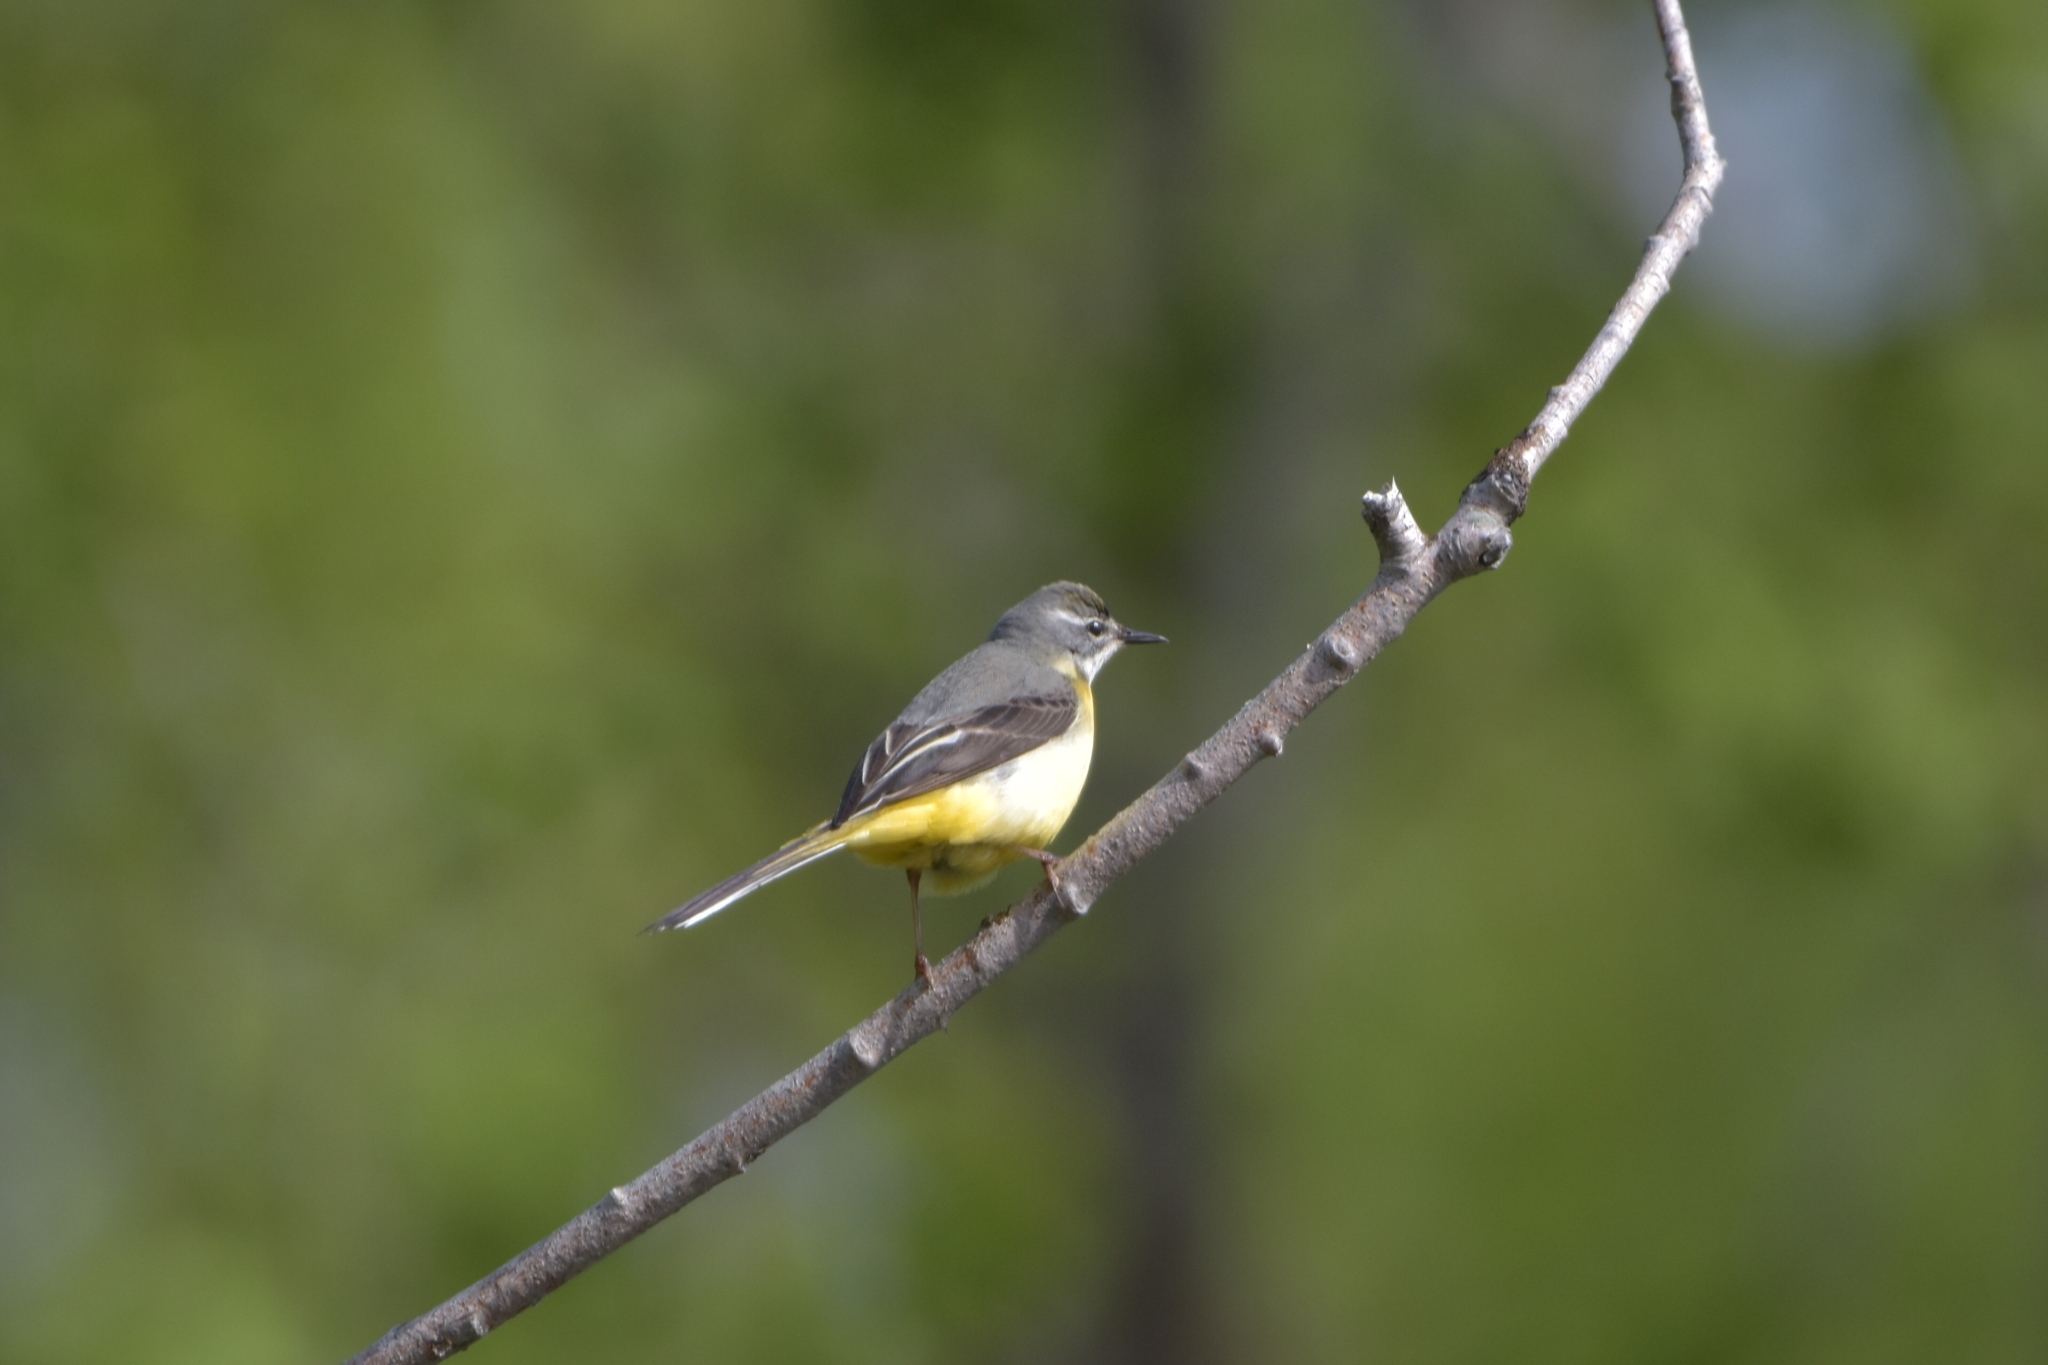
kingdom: Animalia
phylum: Chordata
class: Aves
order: Passeriformes
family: Motacillidae
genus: Motacilla
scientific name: Motacilla cinerea
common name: Grey wagtail
